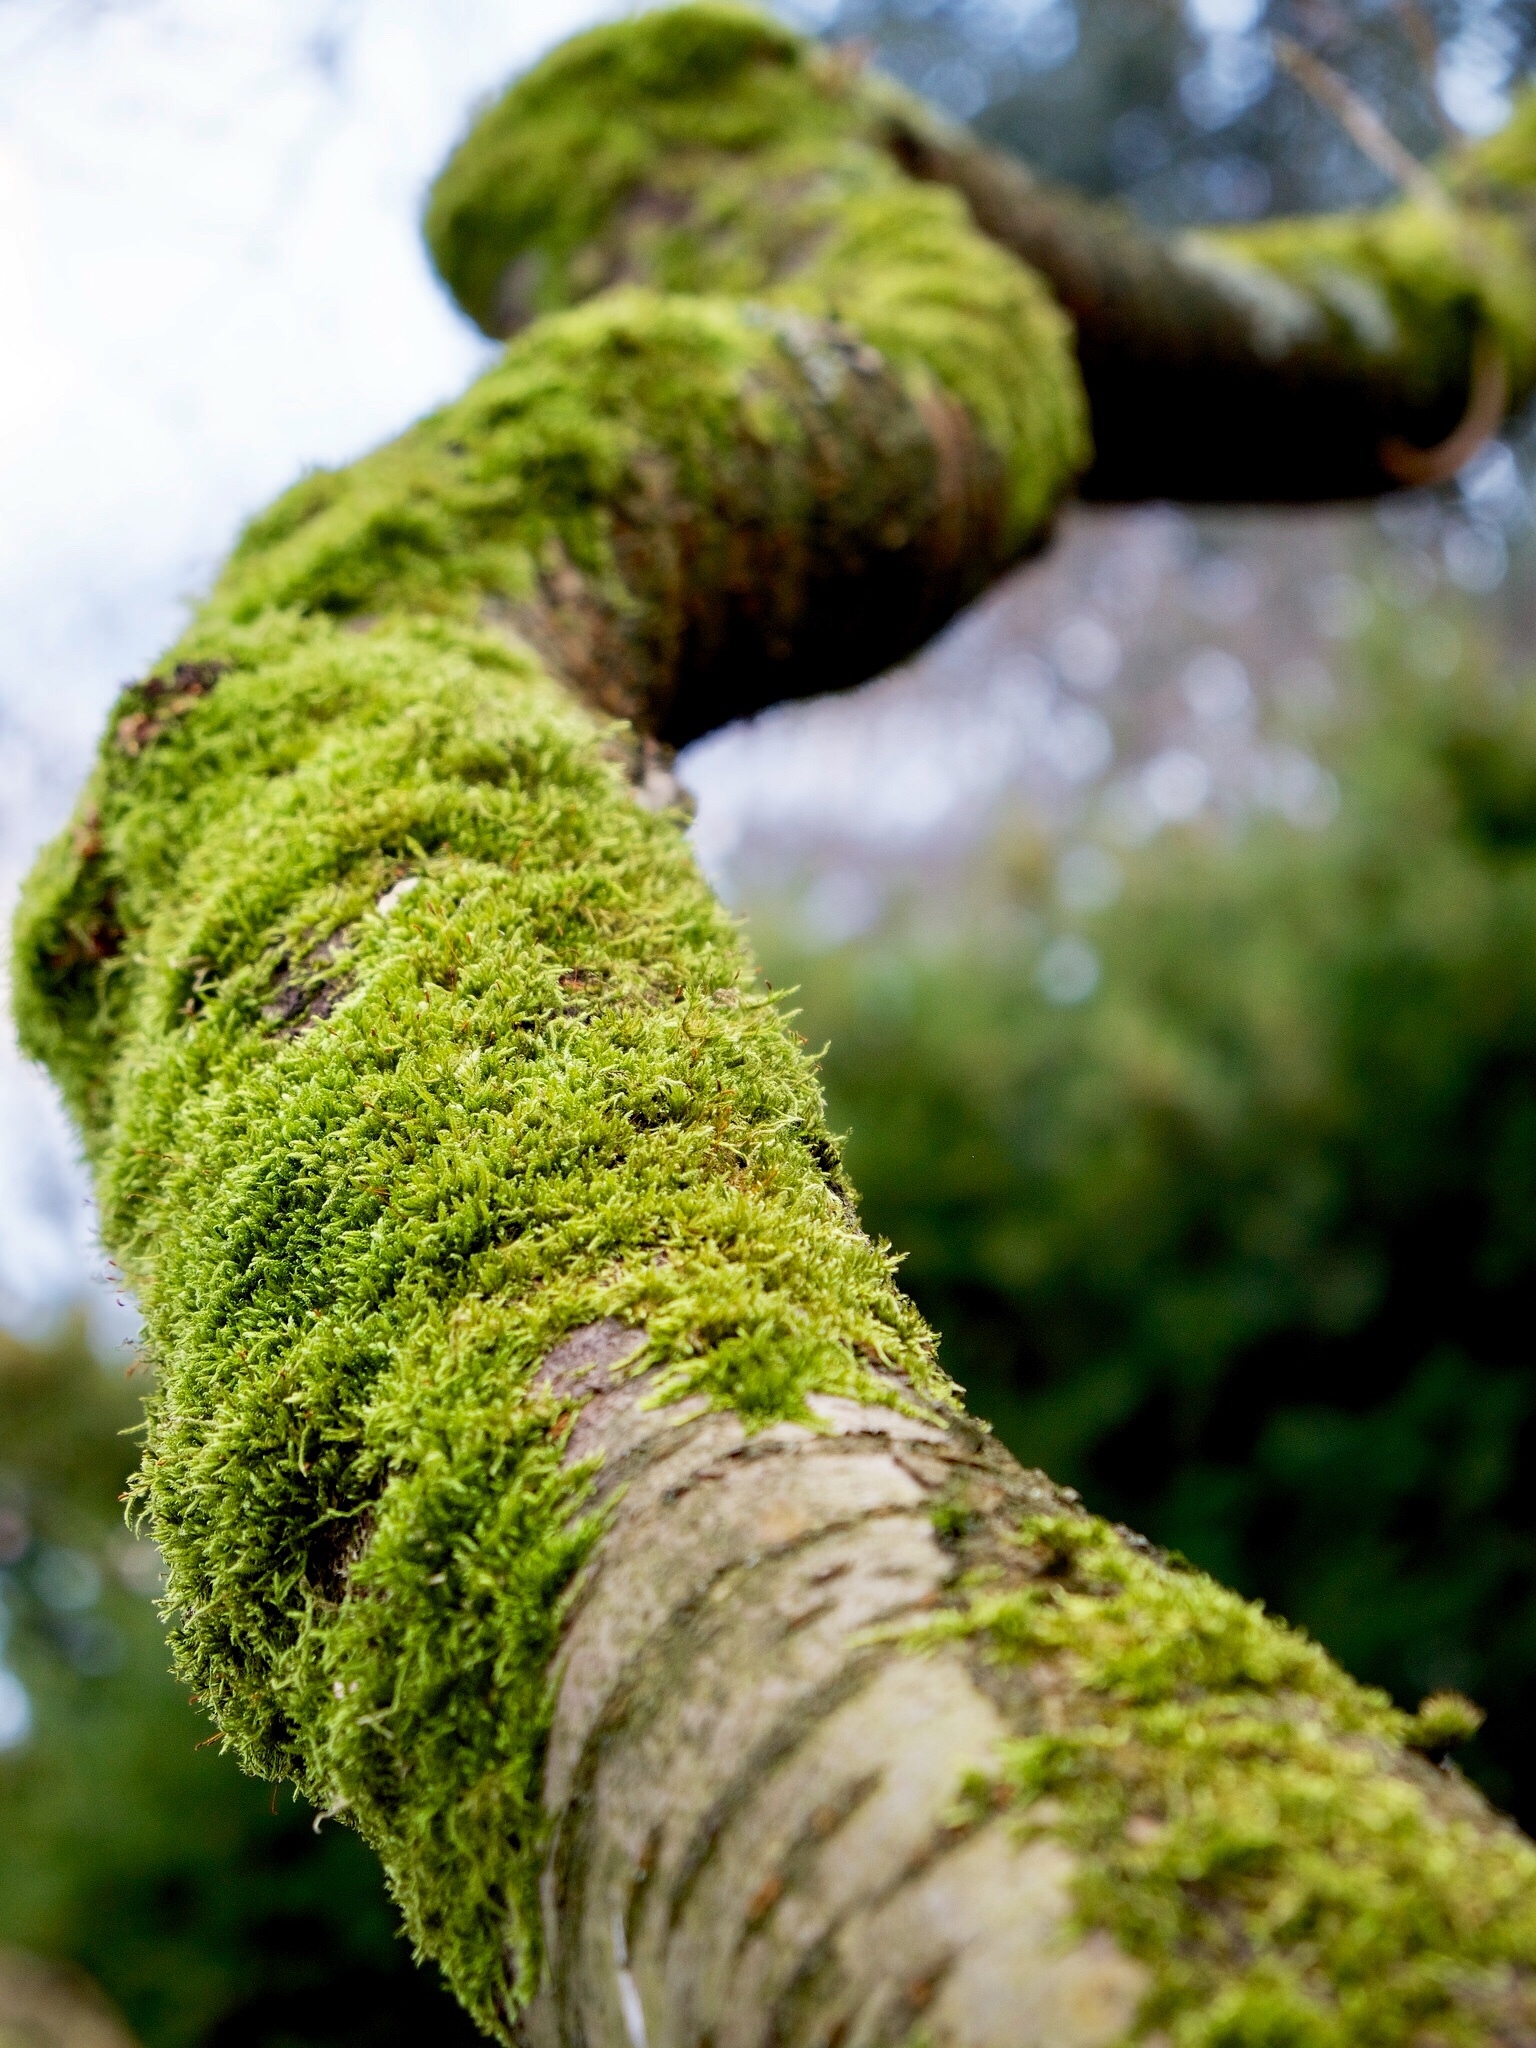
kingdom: Plantae
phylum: Bryophyta
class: Bryopsida
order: Hypnales
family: Hypnaceae
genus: Hypnum
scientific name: Hypnum cupressiforme
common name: Cypress-leaved plait-moss
